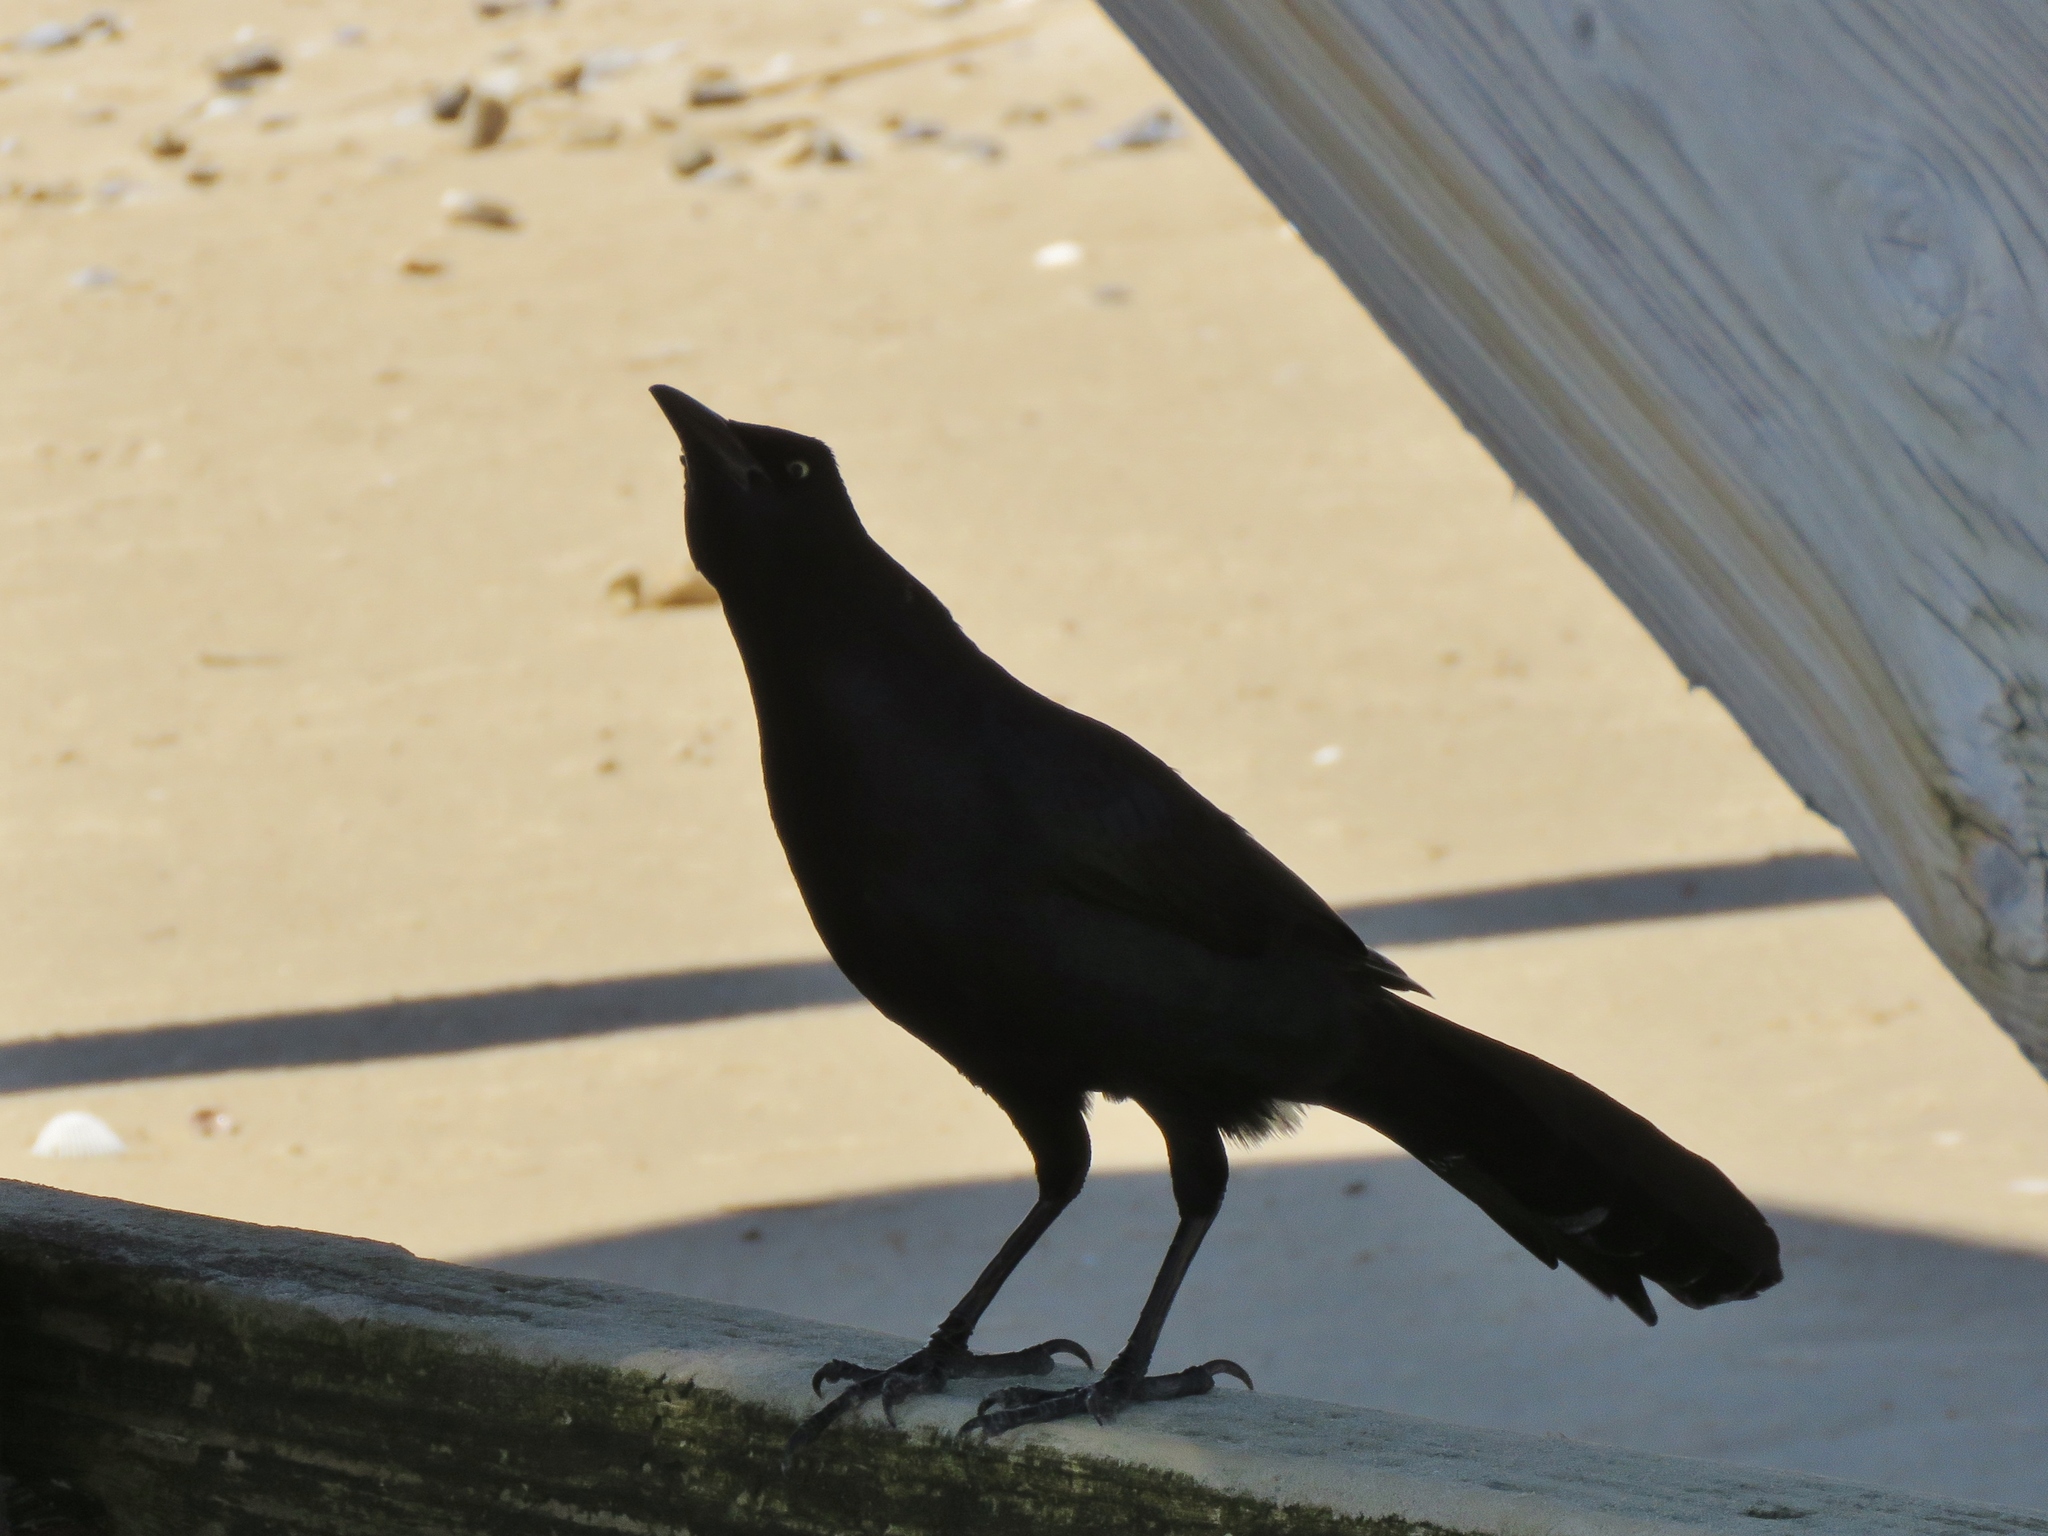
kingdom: Animalia
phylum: Chordata
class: Aves
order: Passeriformes
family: Icteridae
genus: Quiscalus
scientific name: Quiscalus mexicanus
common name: Great-tailed grackle
